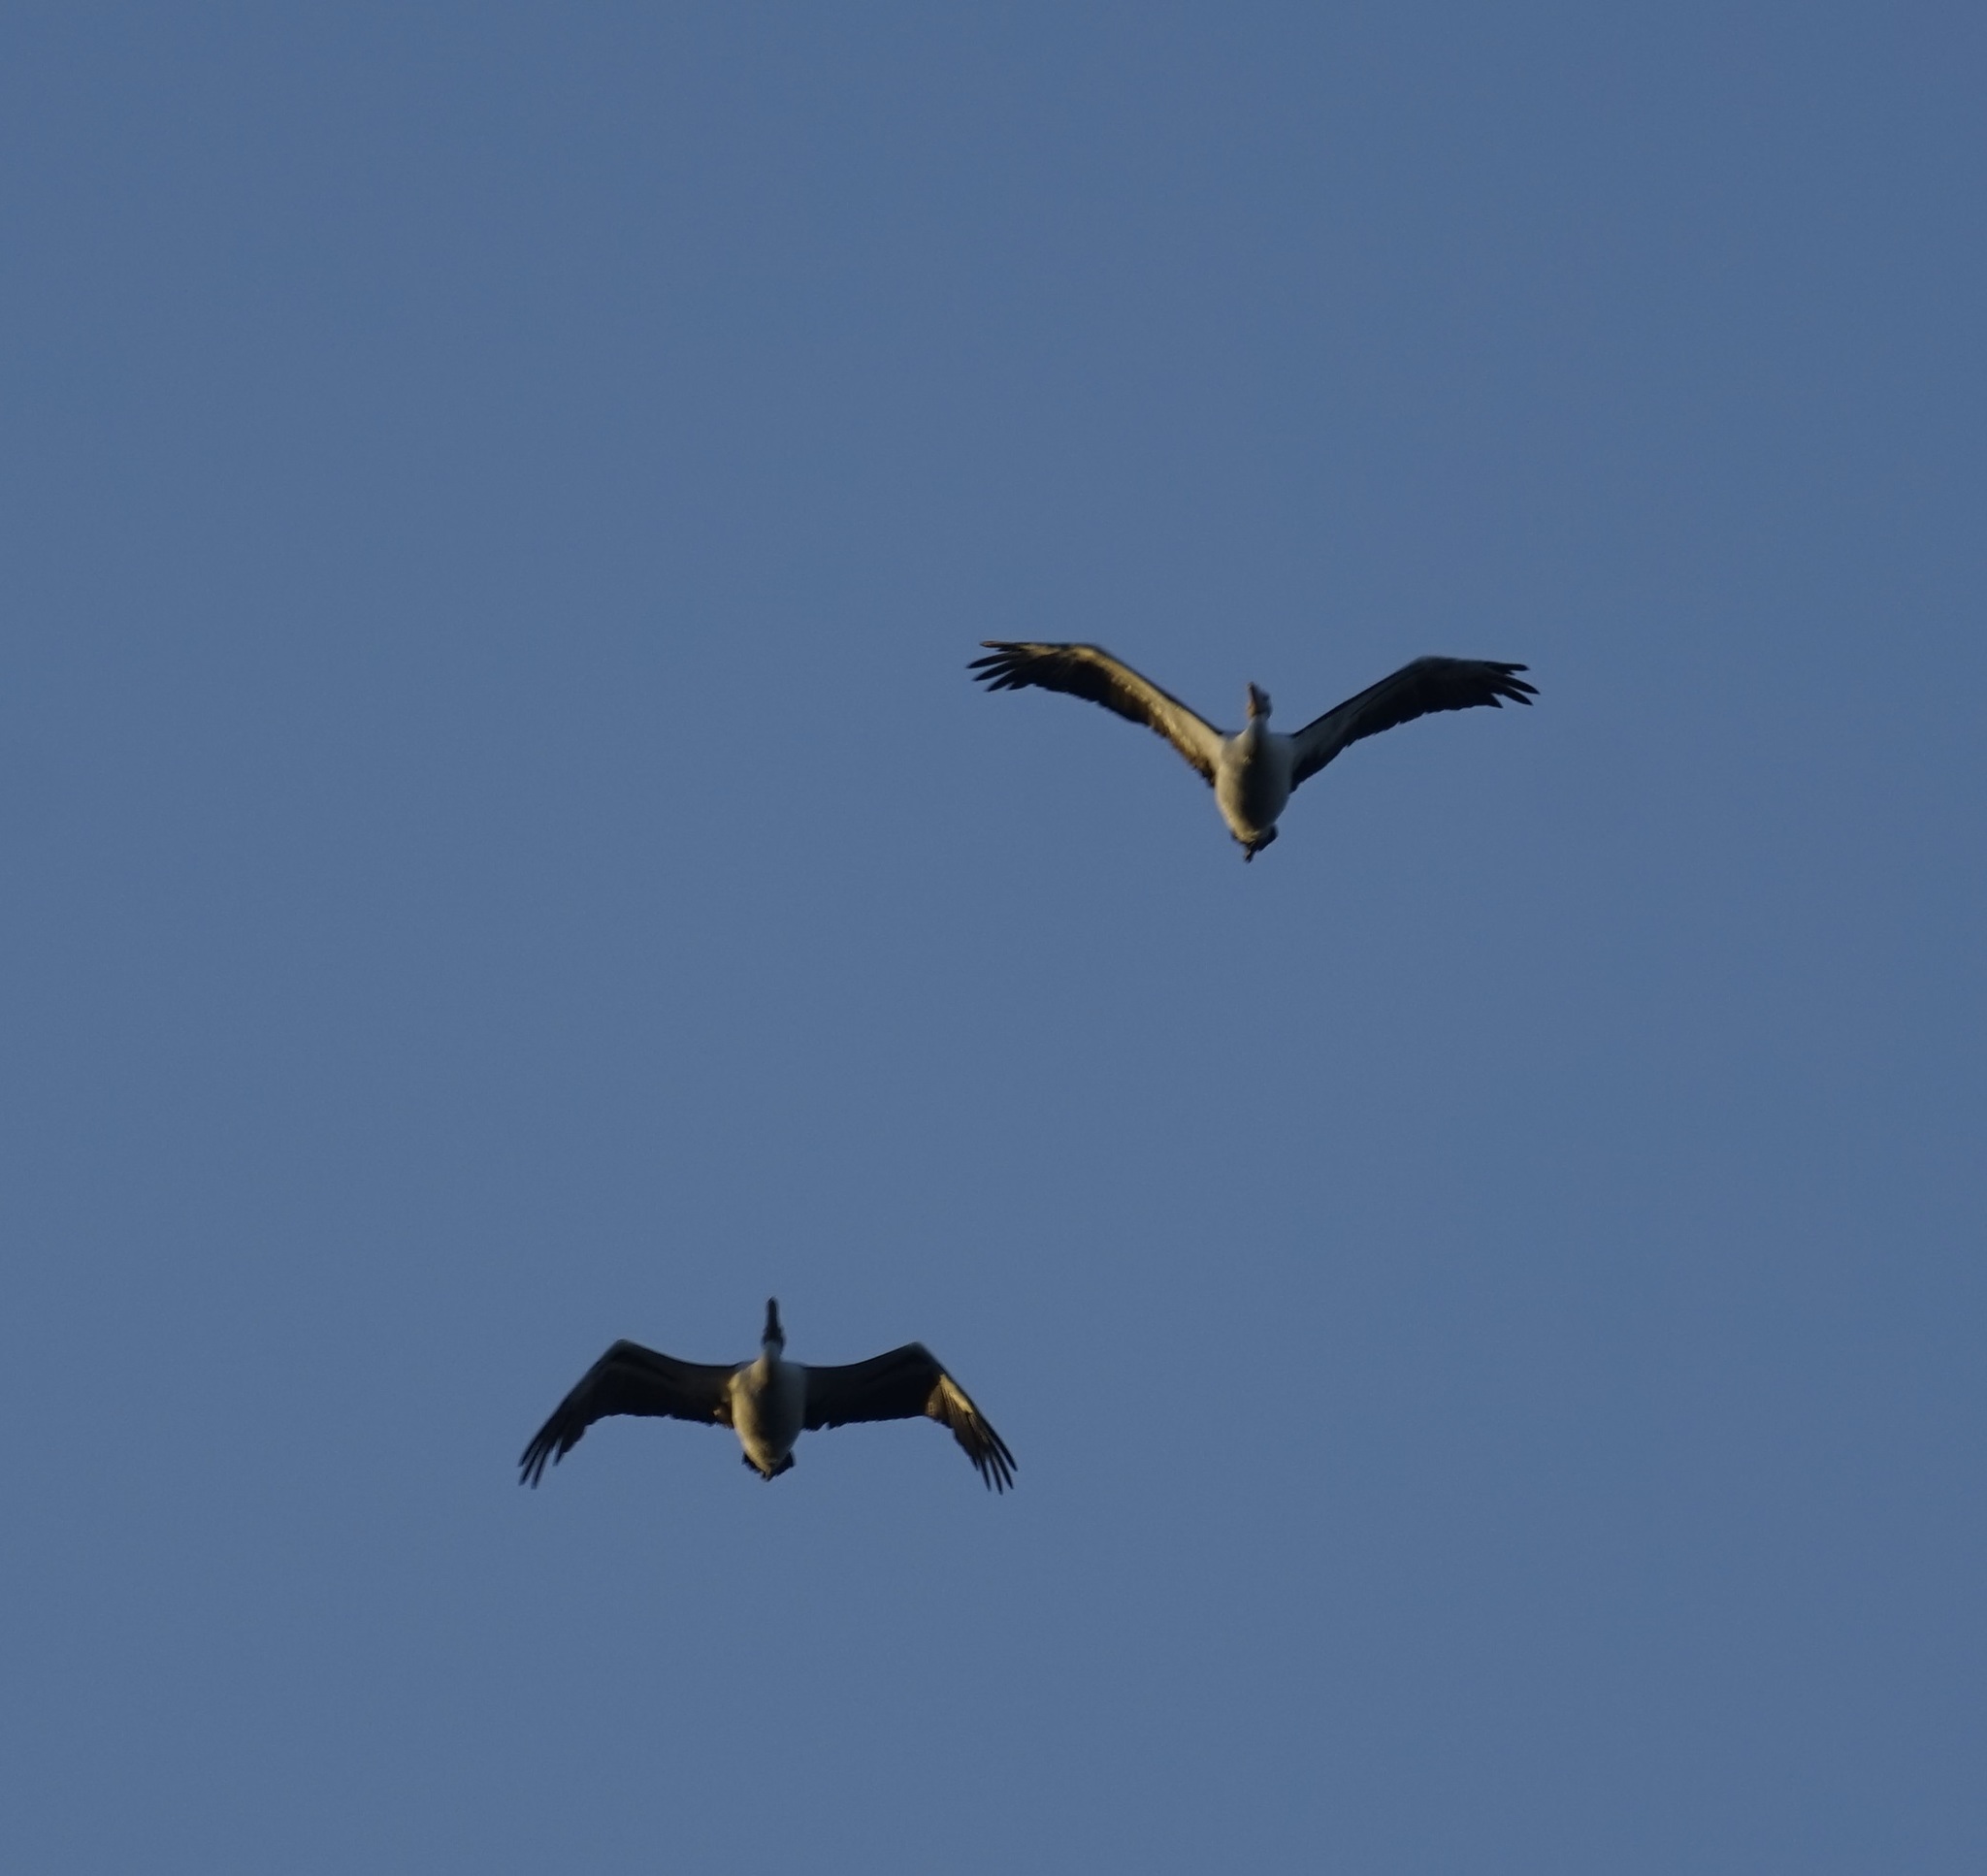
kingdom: Animalia
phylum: Chordata
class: Aves
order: Pelecaniformes
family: Pelecanidae
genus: Pelecanus
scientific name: Pelecanus conspicillatus
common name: Australian pelican
